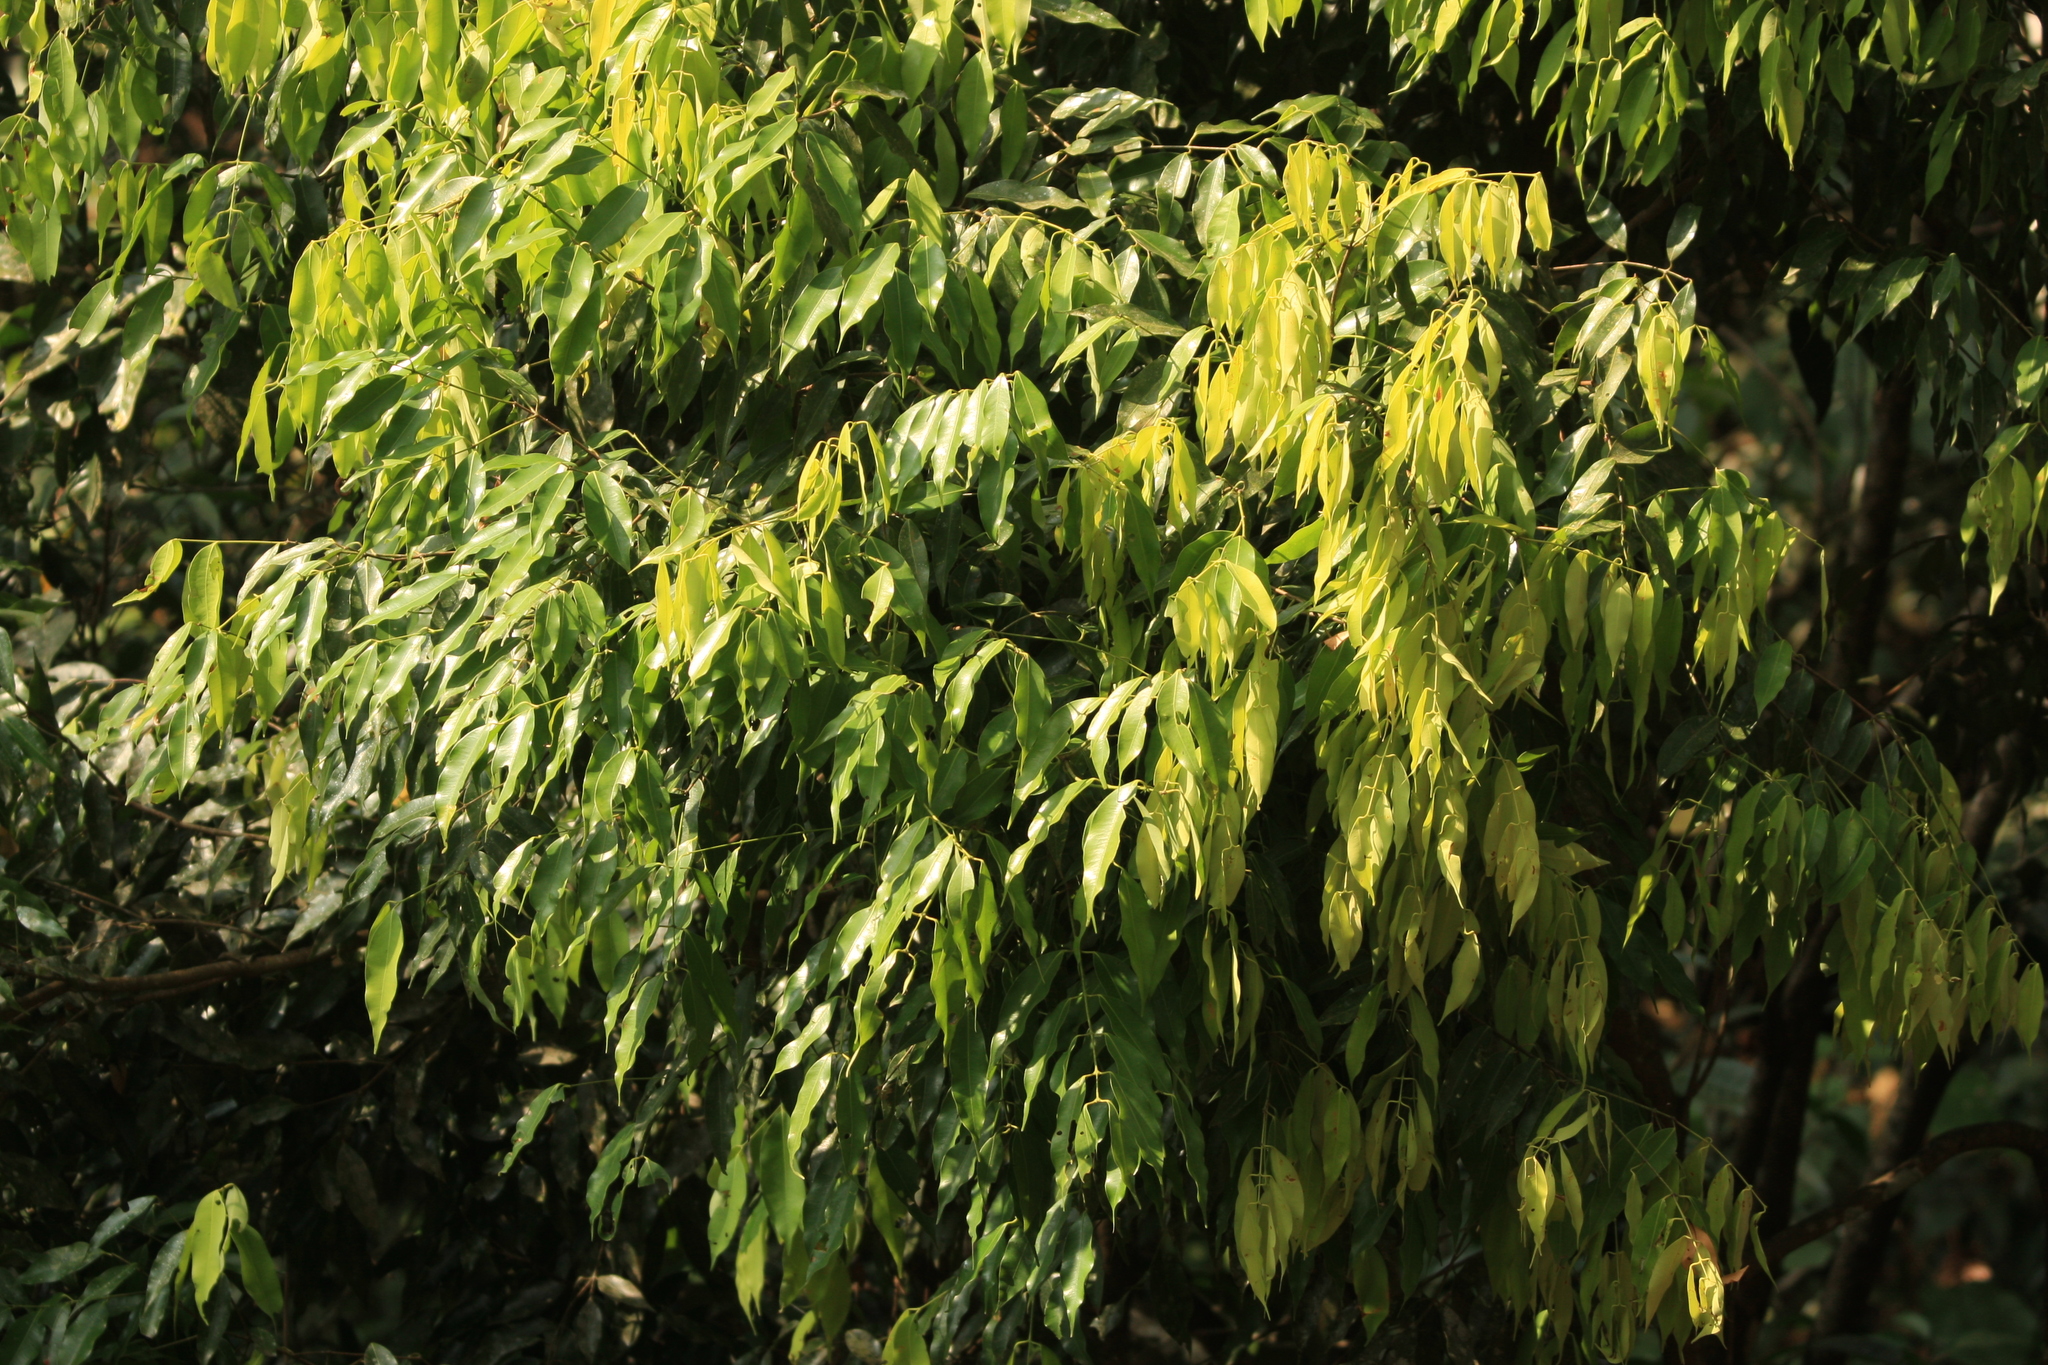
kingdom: Plantae
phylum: Tracheophyta
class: Magnoliopsida
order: Malpighiales
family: Calophyllaceae
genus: Mesua
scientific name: Mesua ferrea
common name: Mesua
